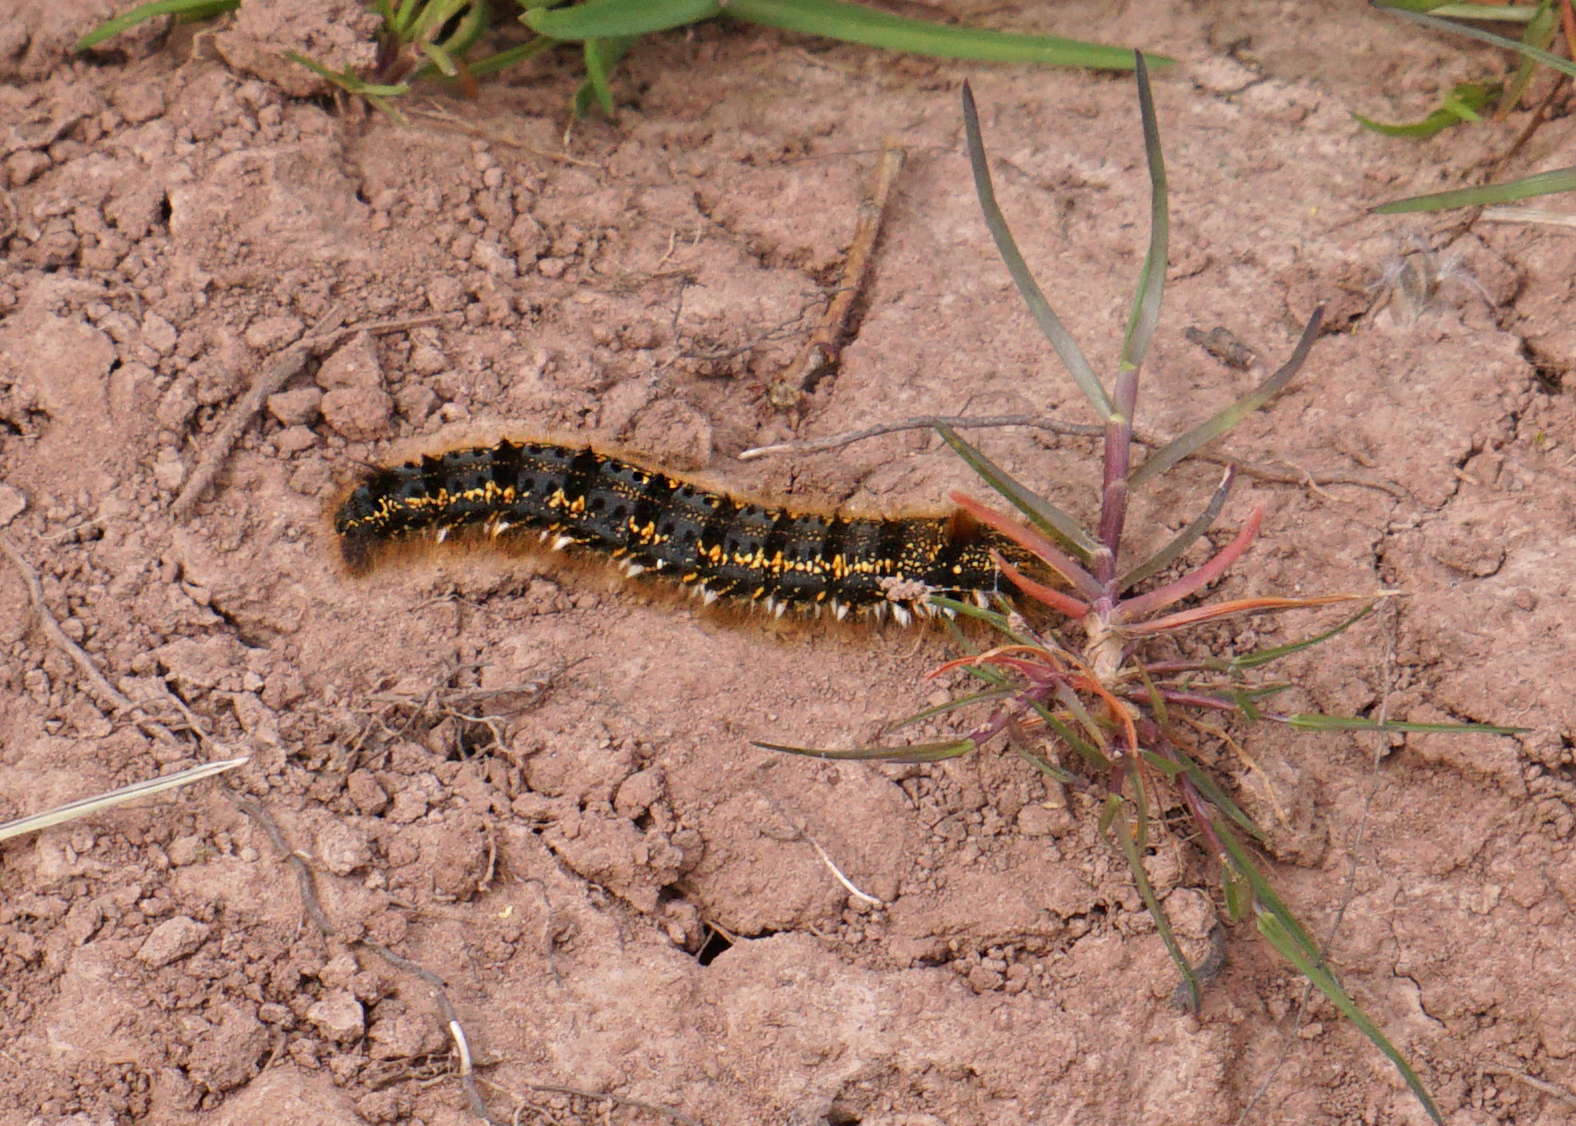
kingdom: Animalia
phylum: Arthropoda
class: Insecta
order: Lepidoptera
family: Lasiocampidae
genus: Euthrix
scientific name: Euthrix potatoria
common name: Drinker
